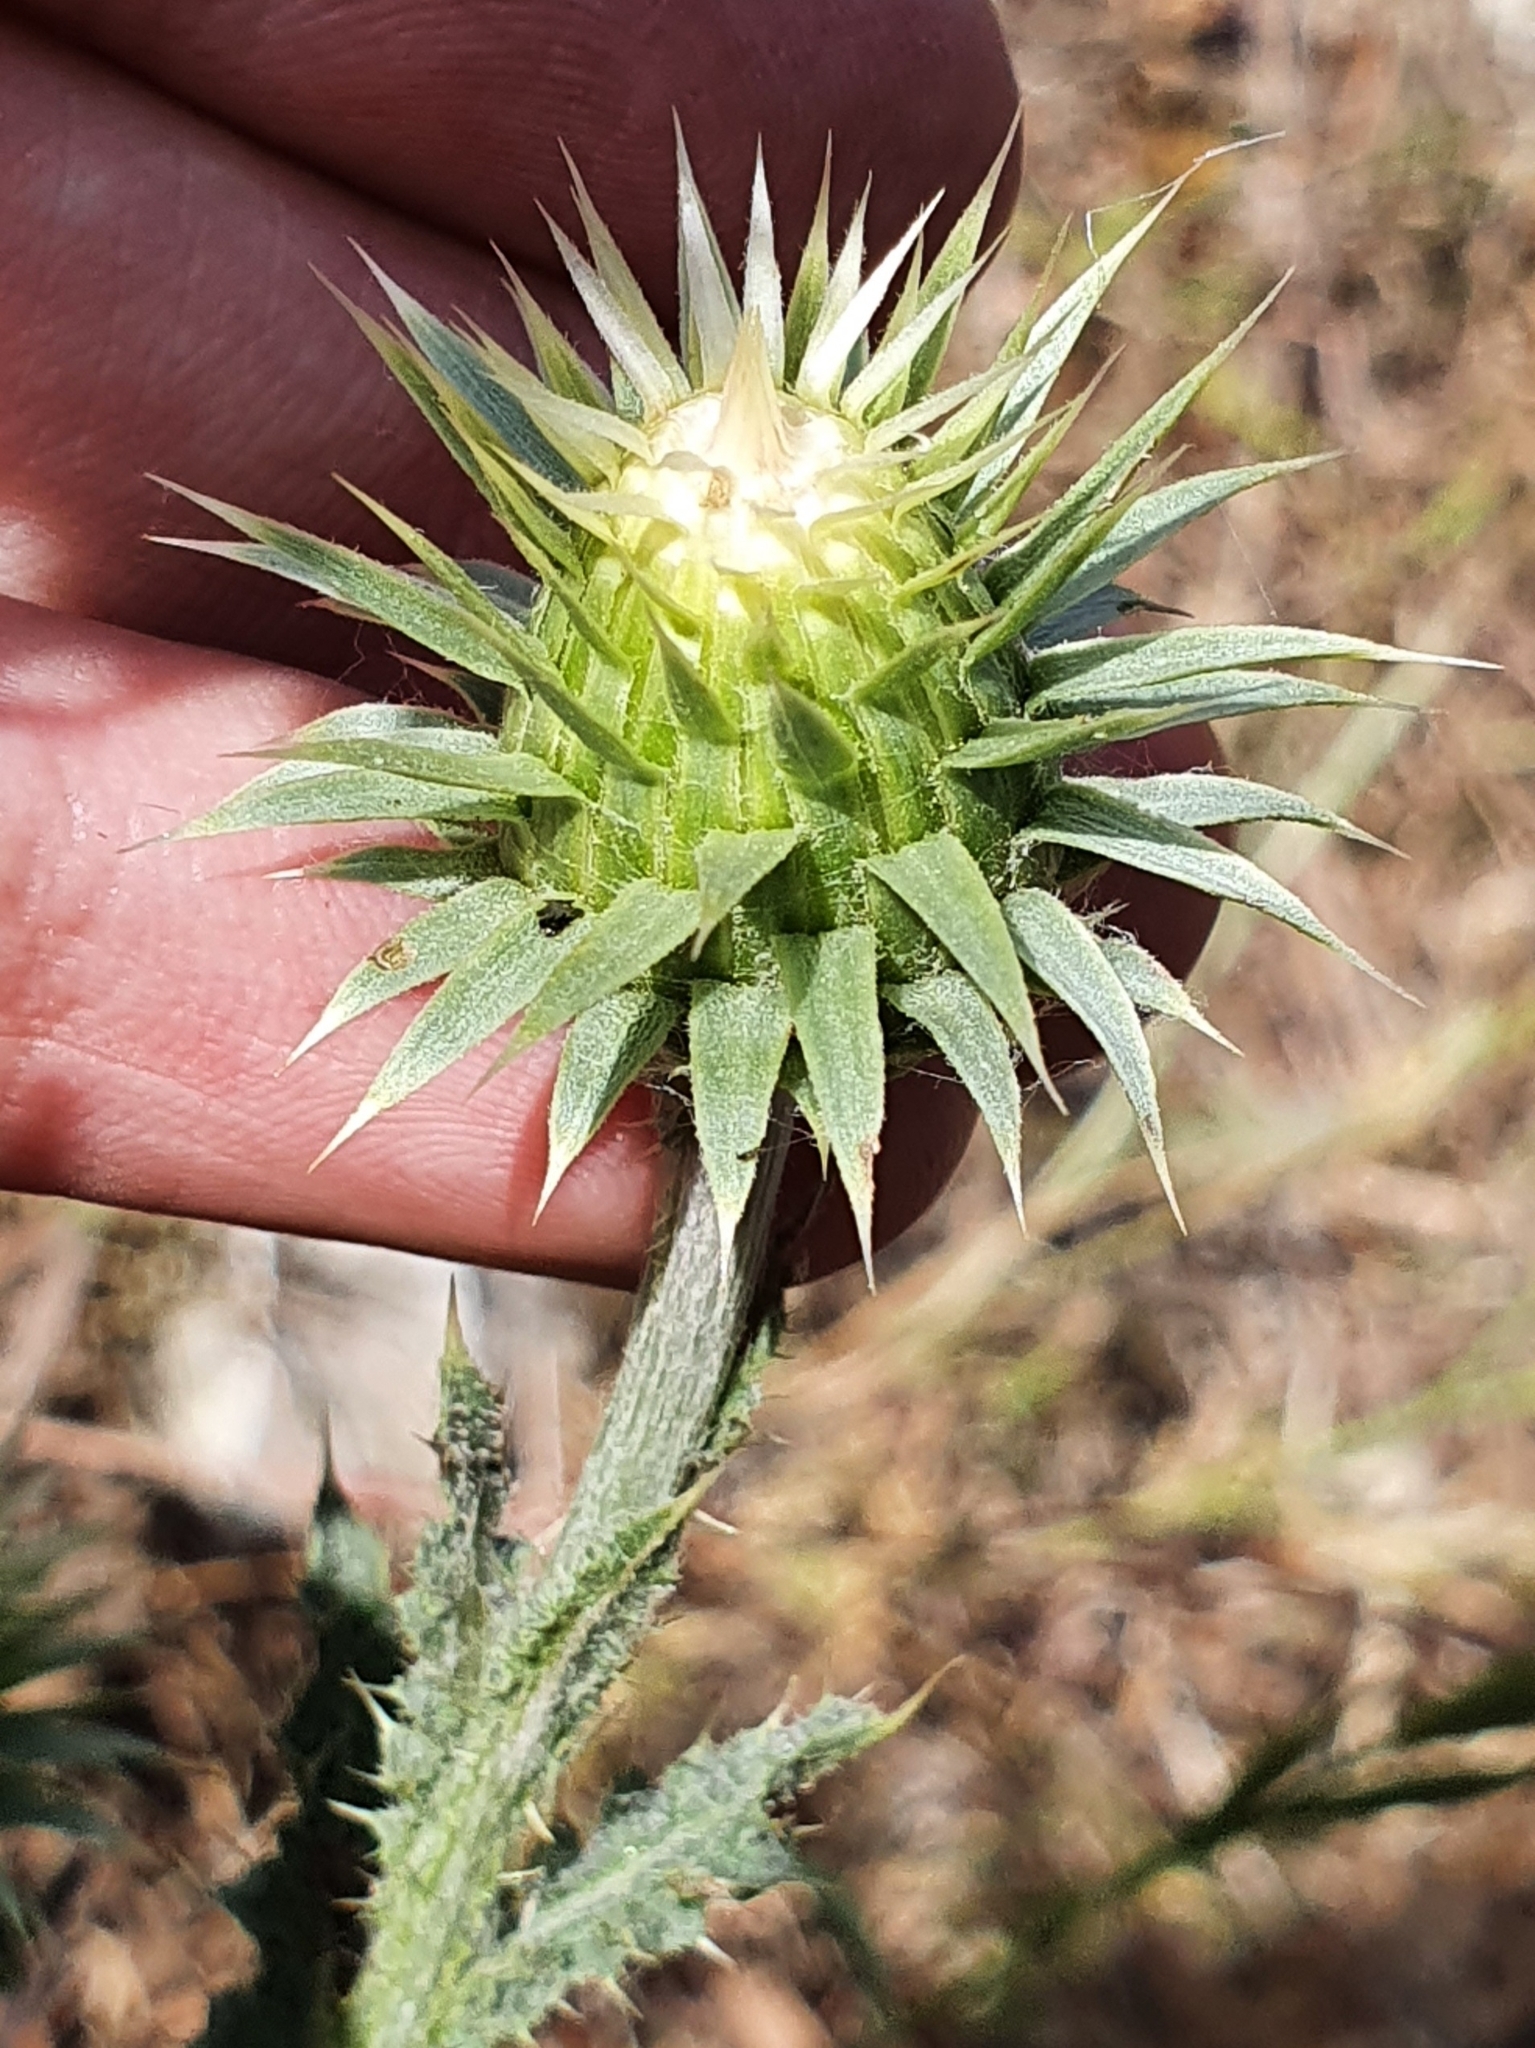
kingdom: Plantae
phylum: Tracheophyta
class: Magnoliopsida
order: Asterales
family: Asteraceae
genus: Carduus
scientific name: Carduus macrocephalus
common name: Giant thistle
